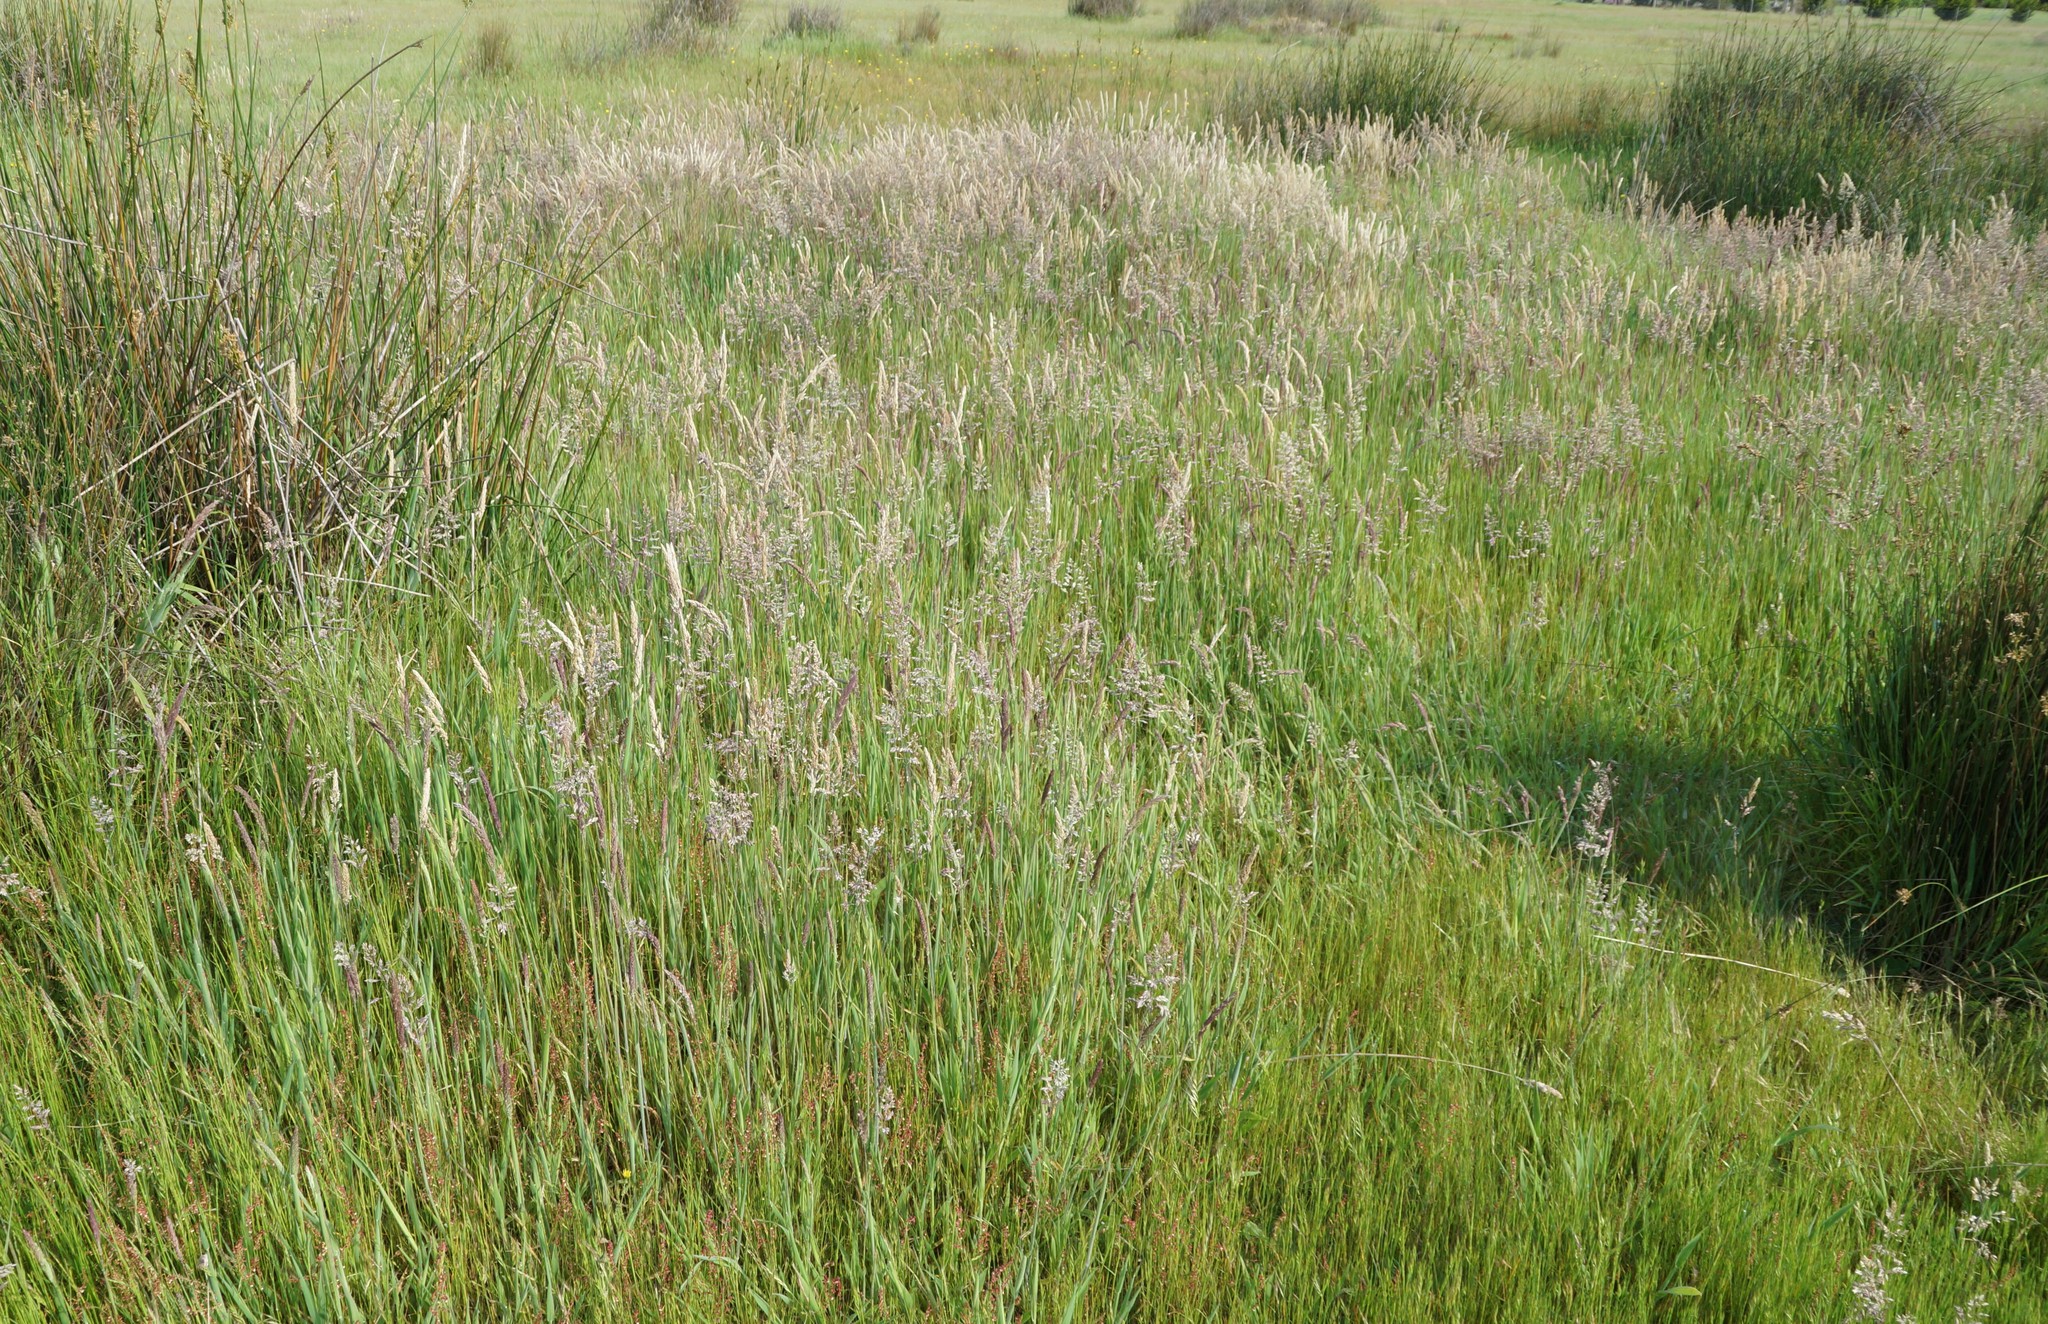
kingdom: Plantae
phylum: Tracheophyta
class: Liliopsida
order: Poales
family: Poaceae
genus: Holcus
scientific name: Holcus lanatus
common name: Yorkshire-fog
